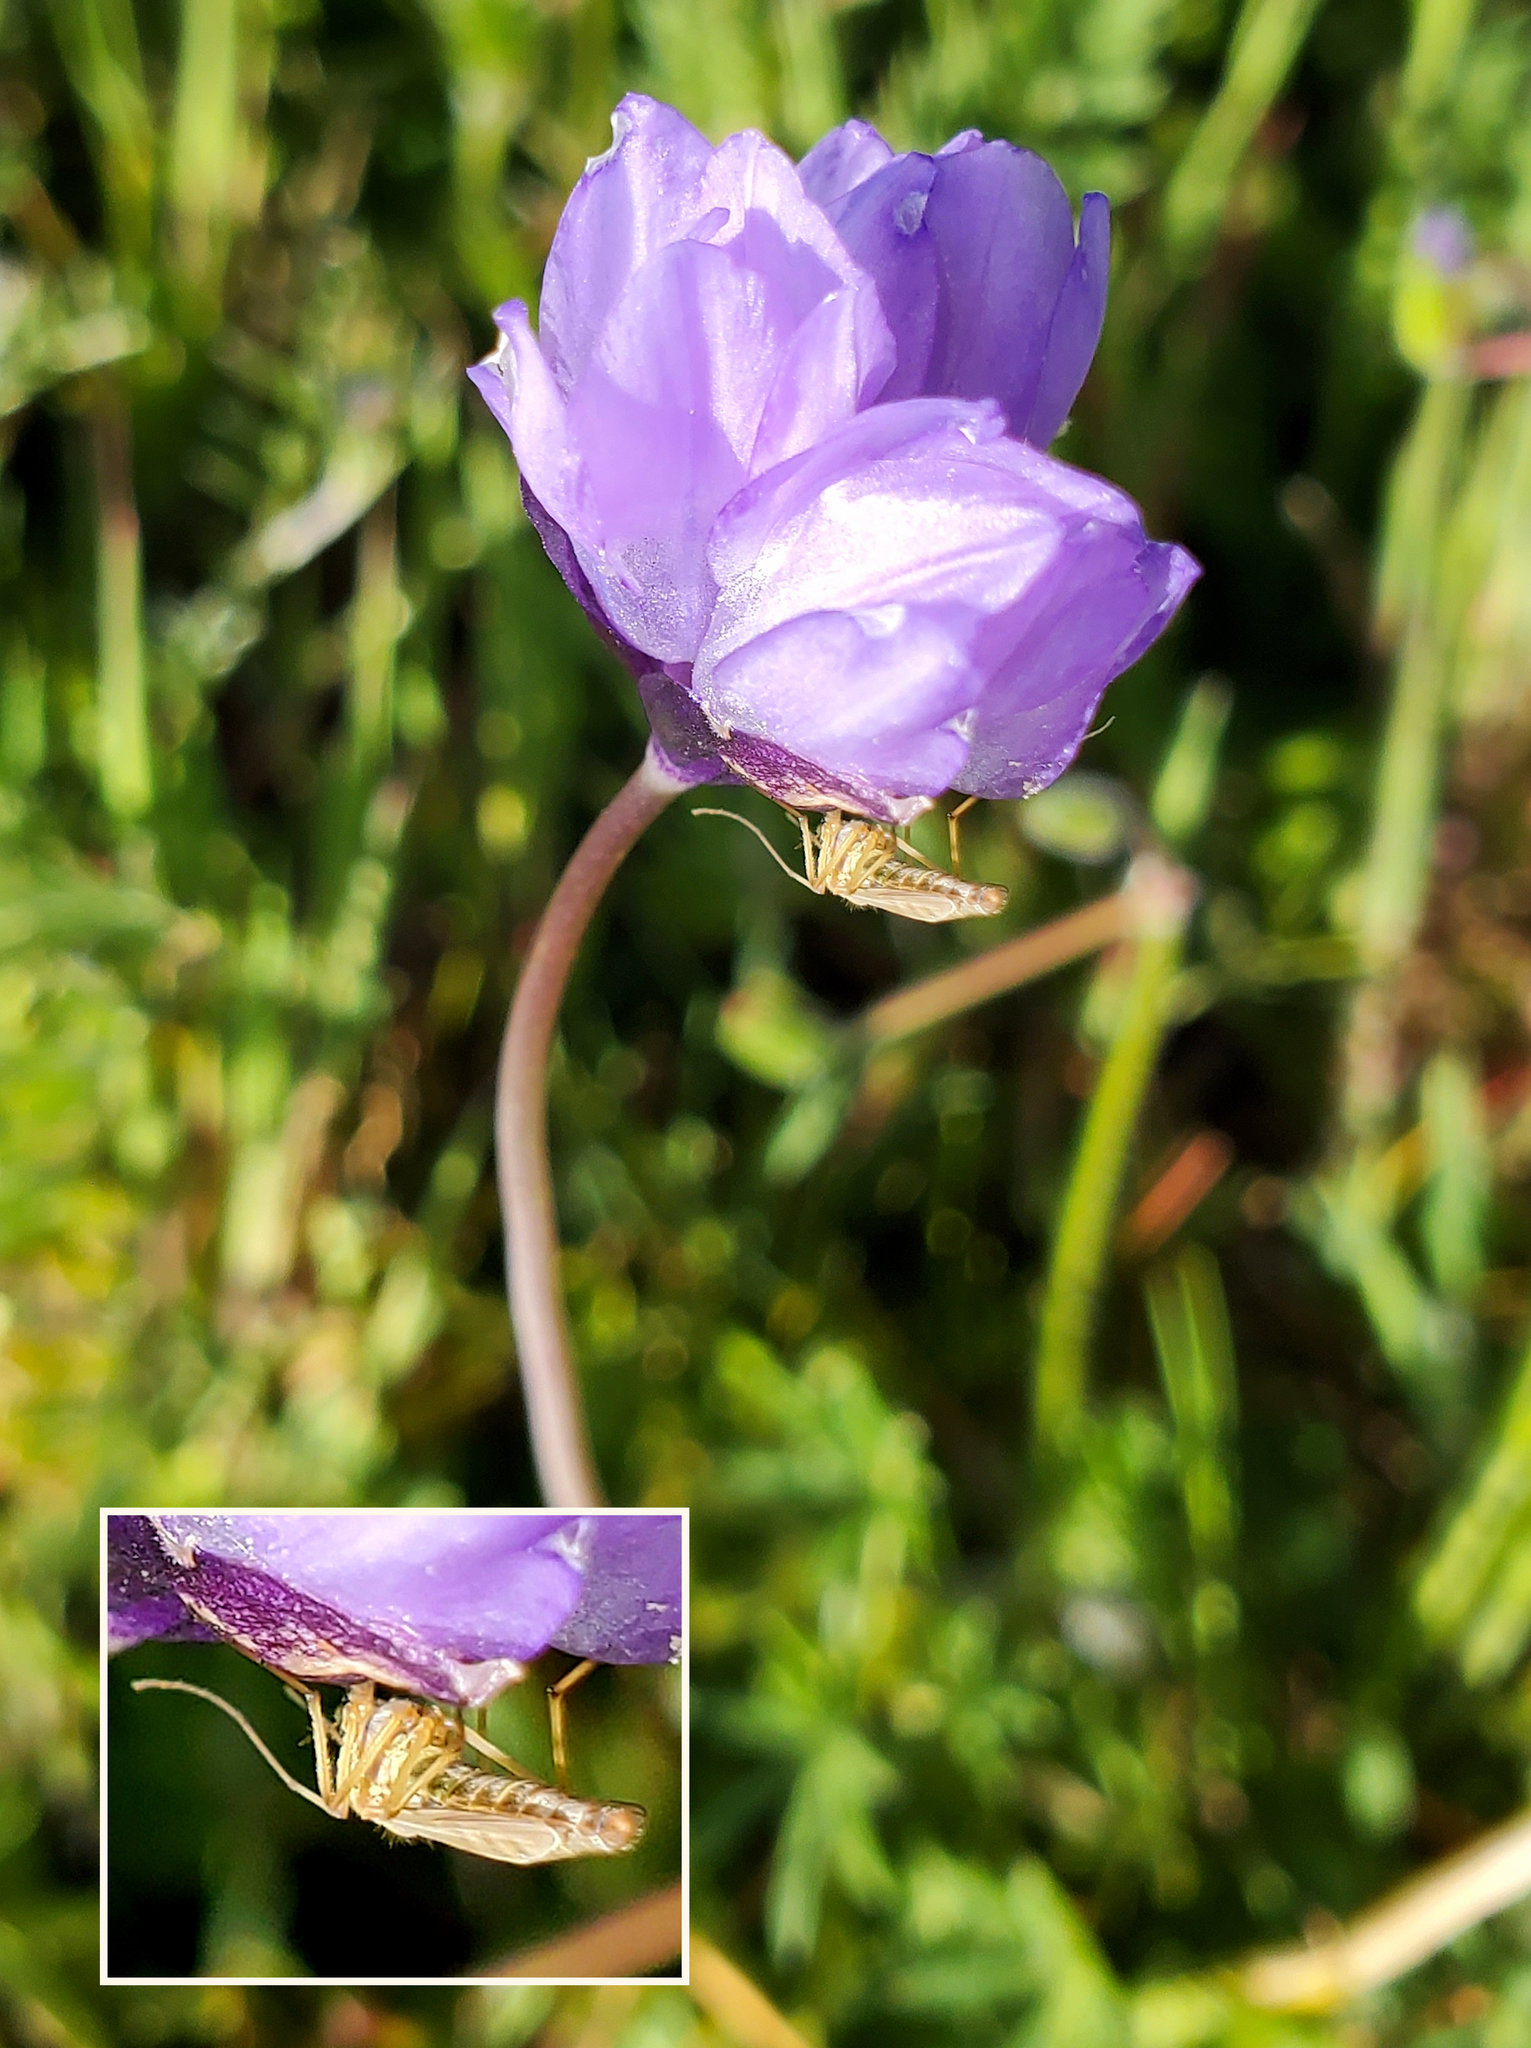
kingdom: Plantae
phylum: Tracheophyta
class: Liliopsida
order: Asparagales
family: Asparagaceae
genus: Dipterostemon
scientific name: Dipterostemon capitatus
